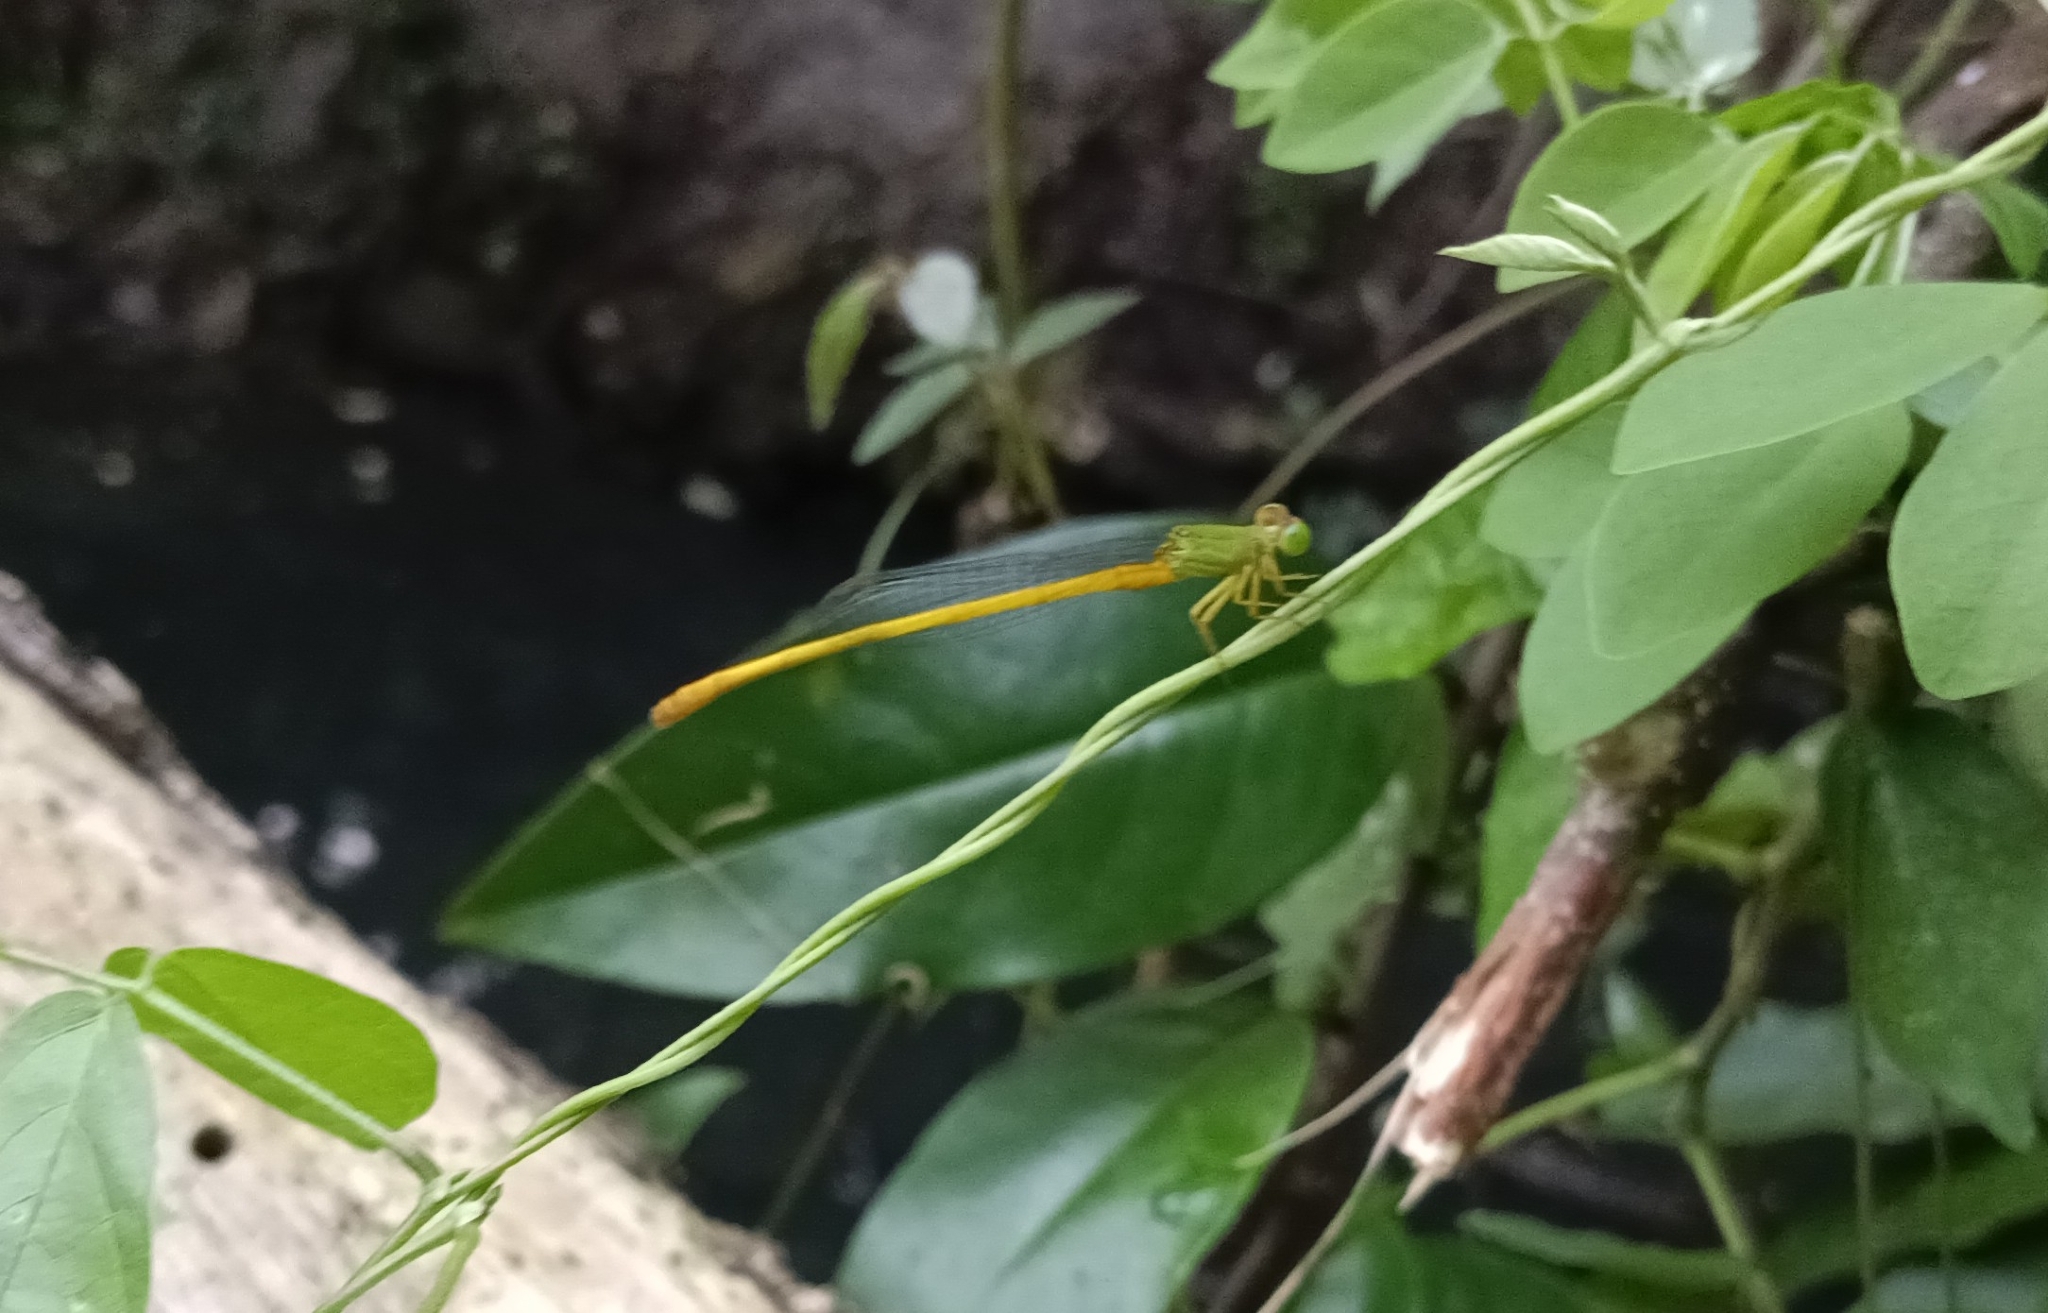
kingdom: Animalia
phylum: Arthropoda
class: Insecta
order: Odonata
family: Coenagrionidae
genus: Ceriagrion
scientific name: Ceriagrion coromandelianum
